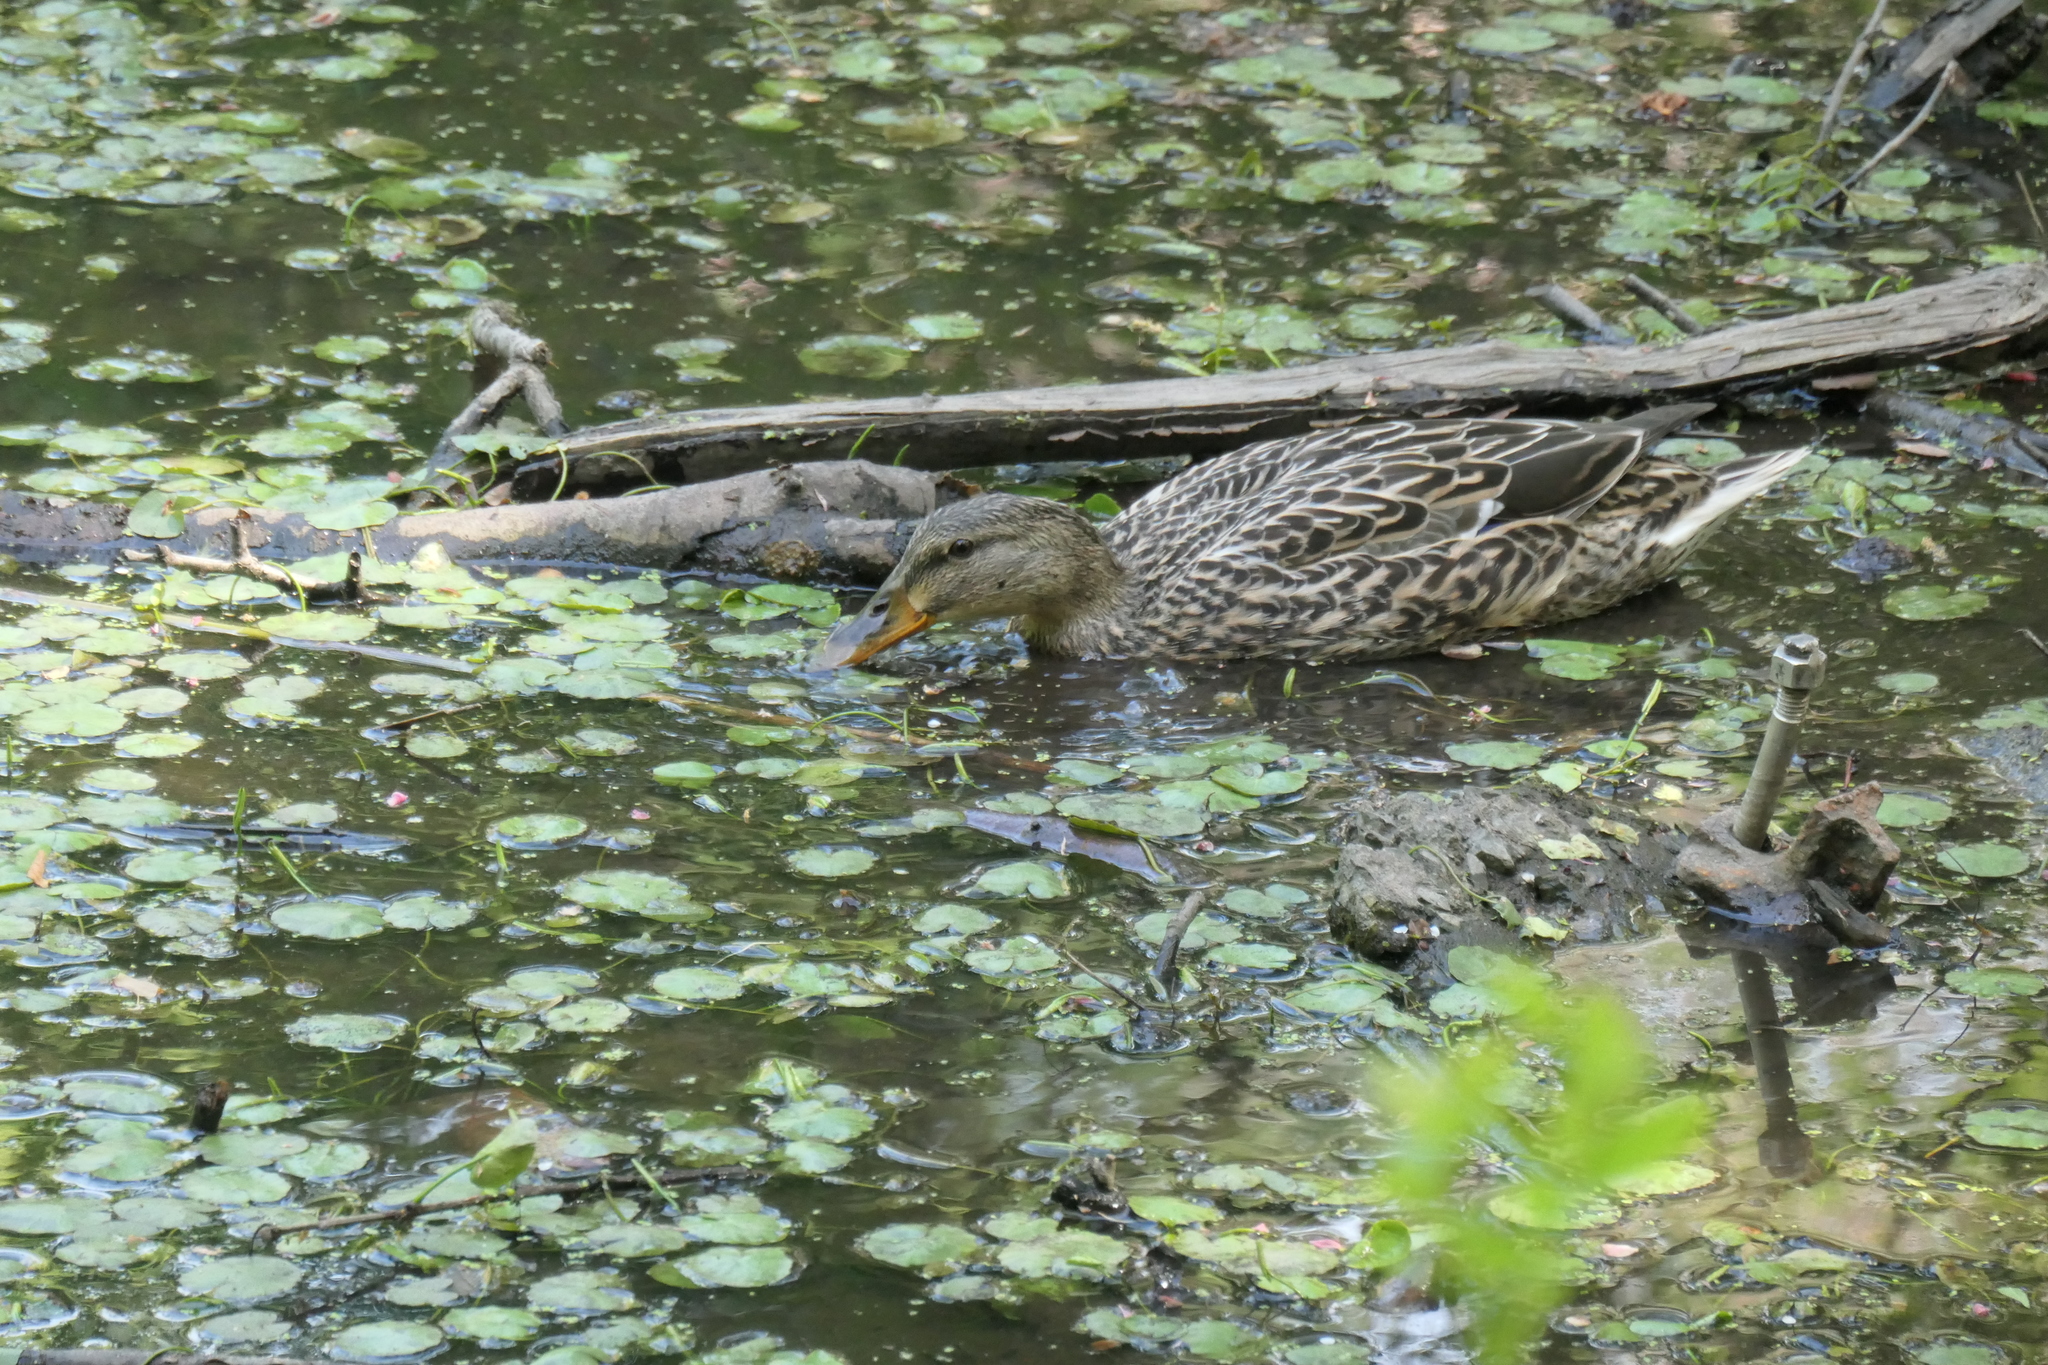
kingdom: Animalia
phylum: Chordata
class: Aves
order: Anseriformes
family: Anatidae
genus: Anas
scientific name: Anas platyrhynchos
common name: Mallard
